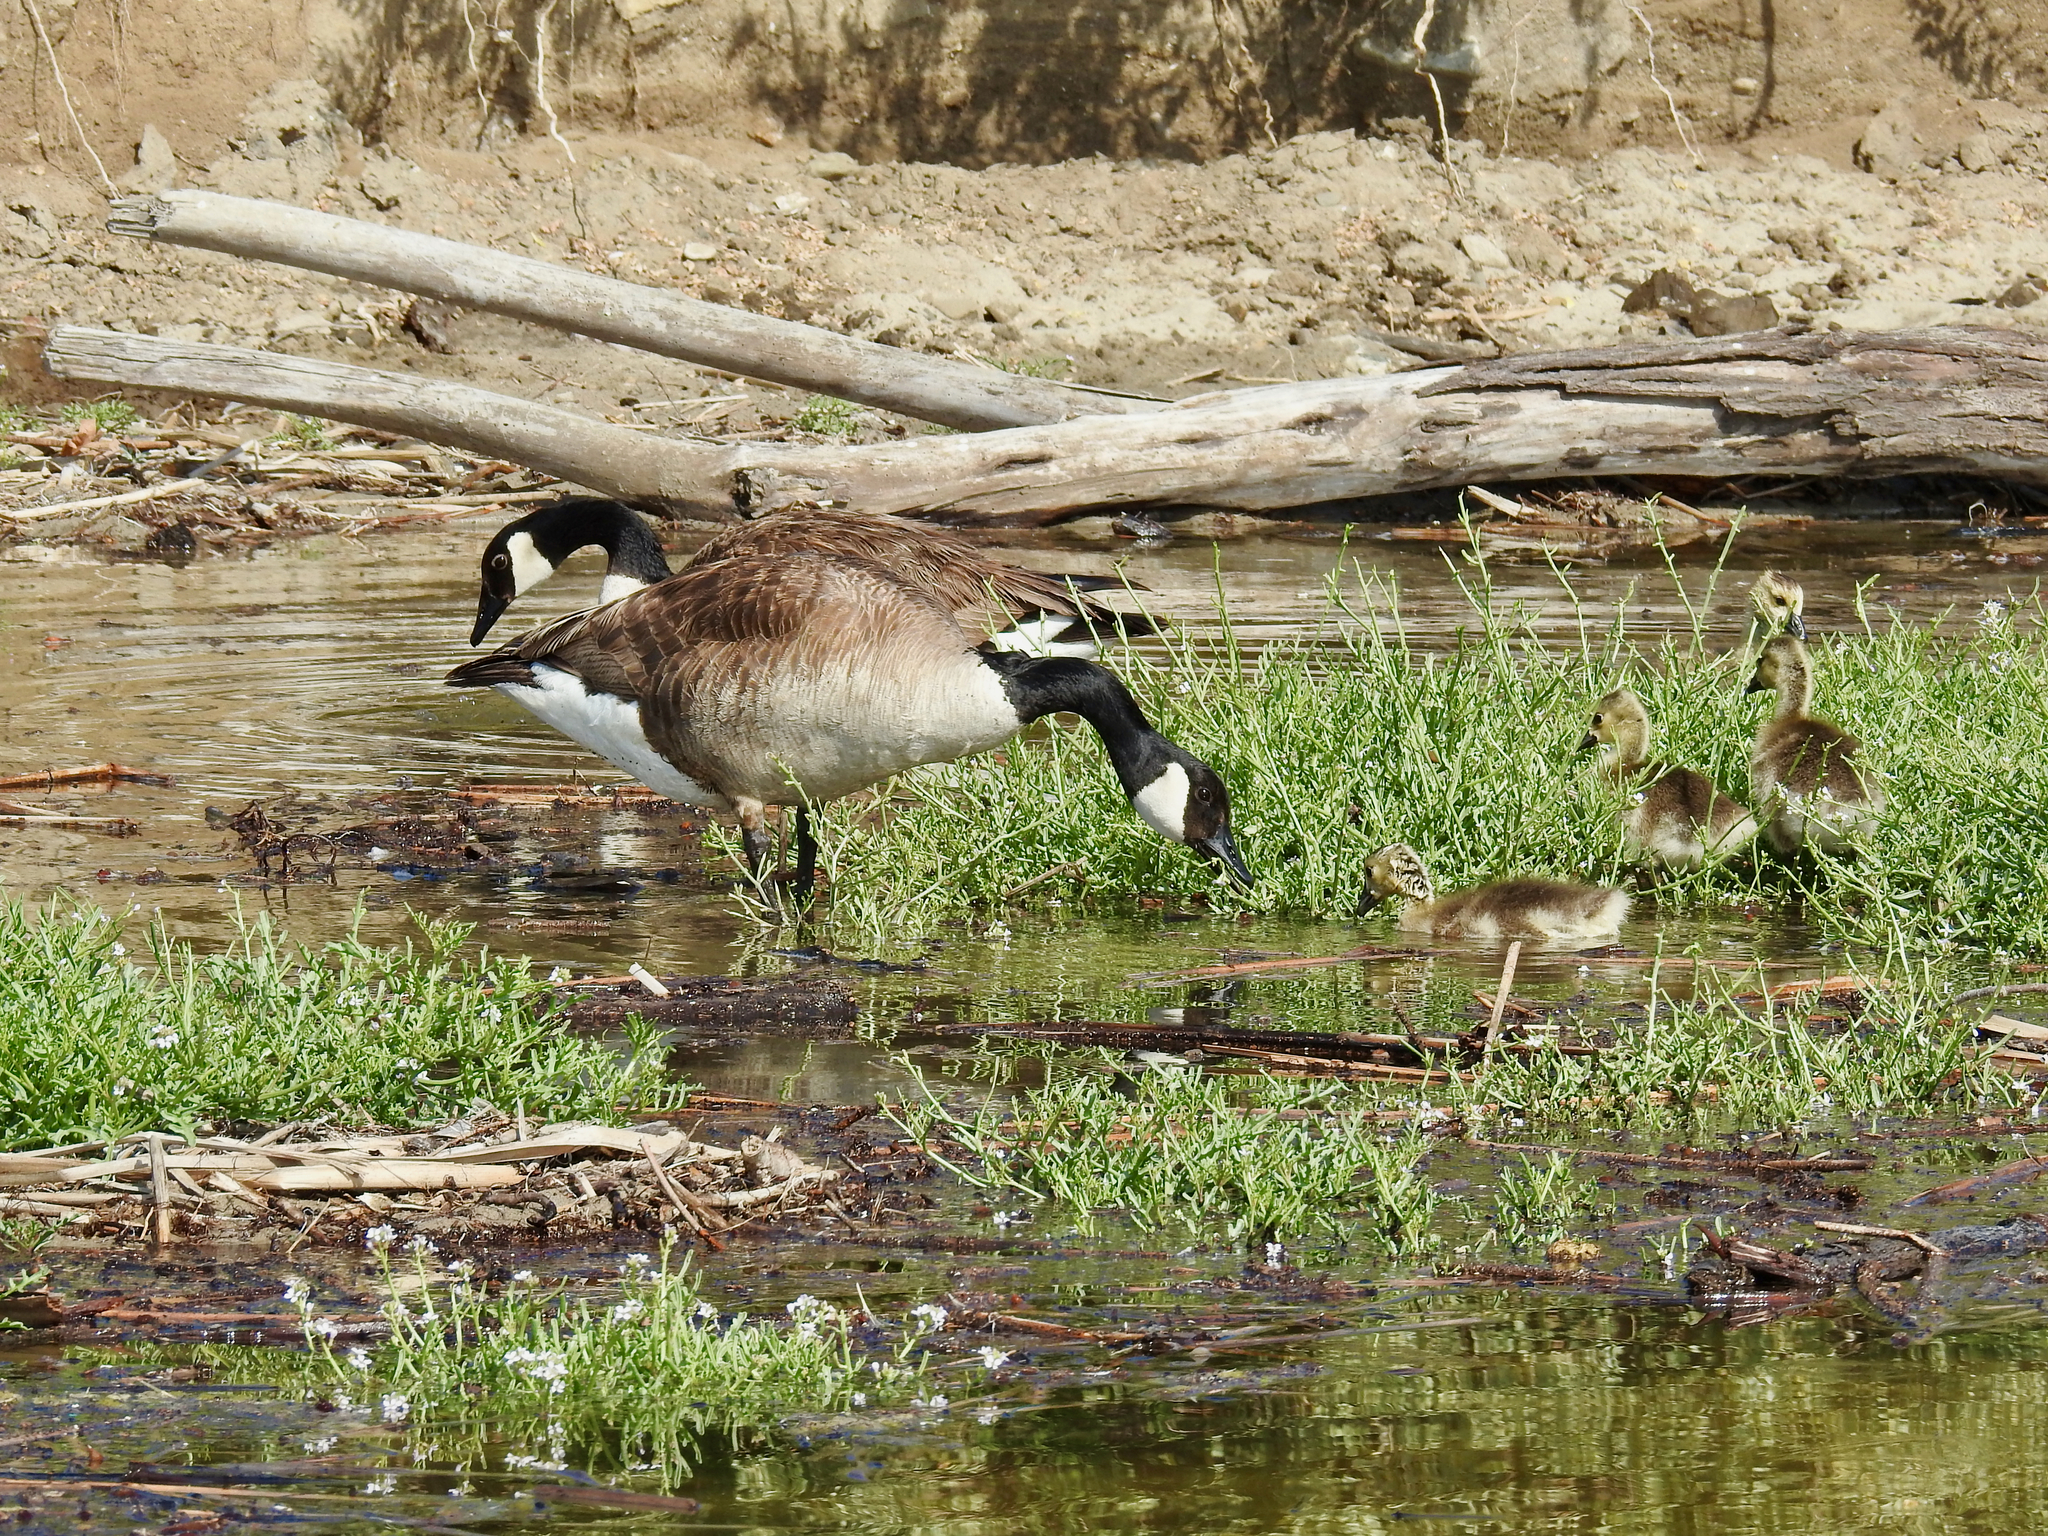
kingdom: Animalia
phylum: Chordata
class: Aves
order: Anseriformes
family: Anatidae
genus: Branta
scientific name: Branta canadensis
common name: Canada goose
